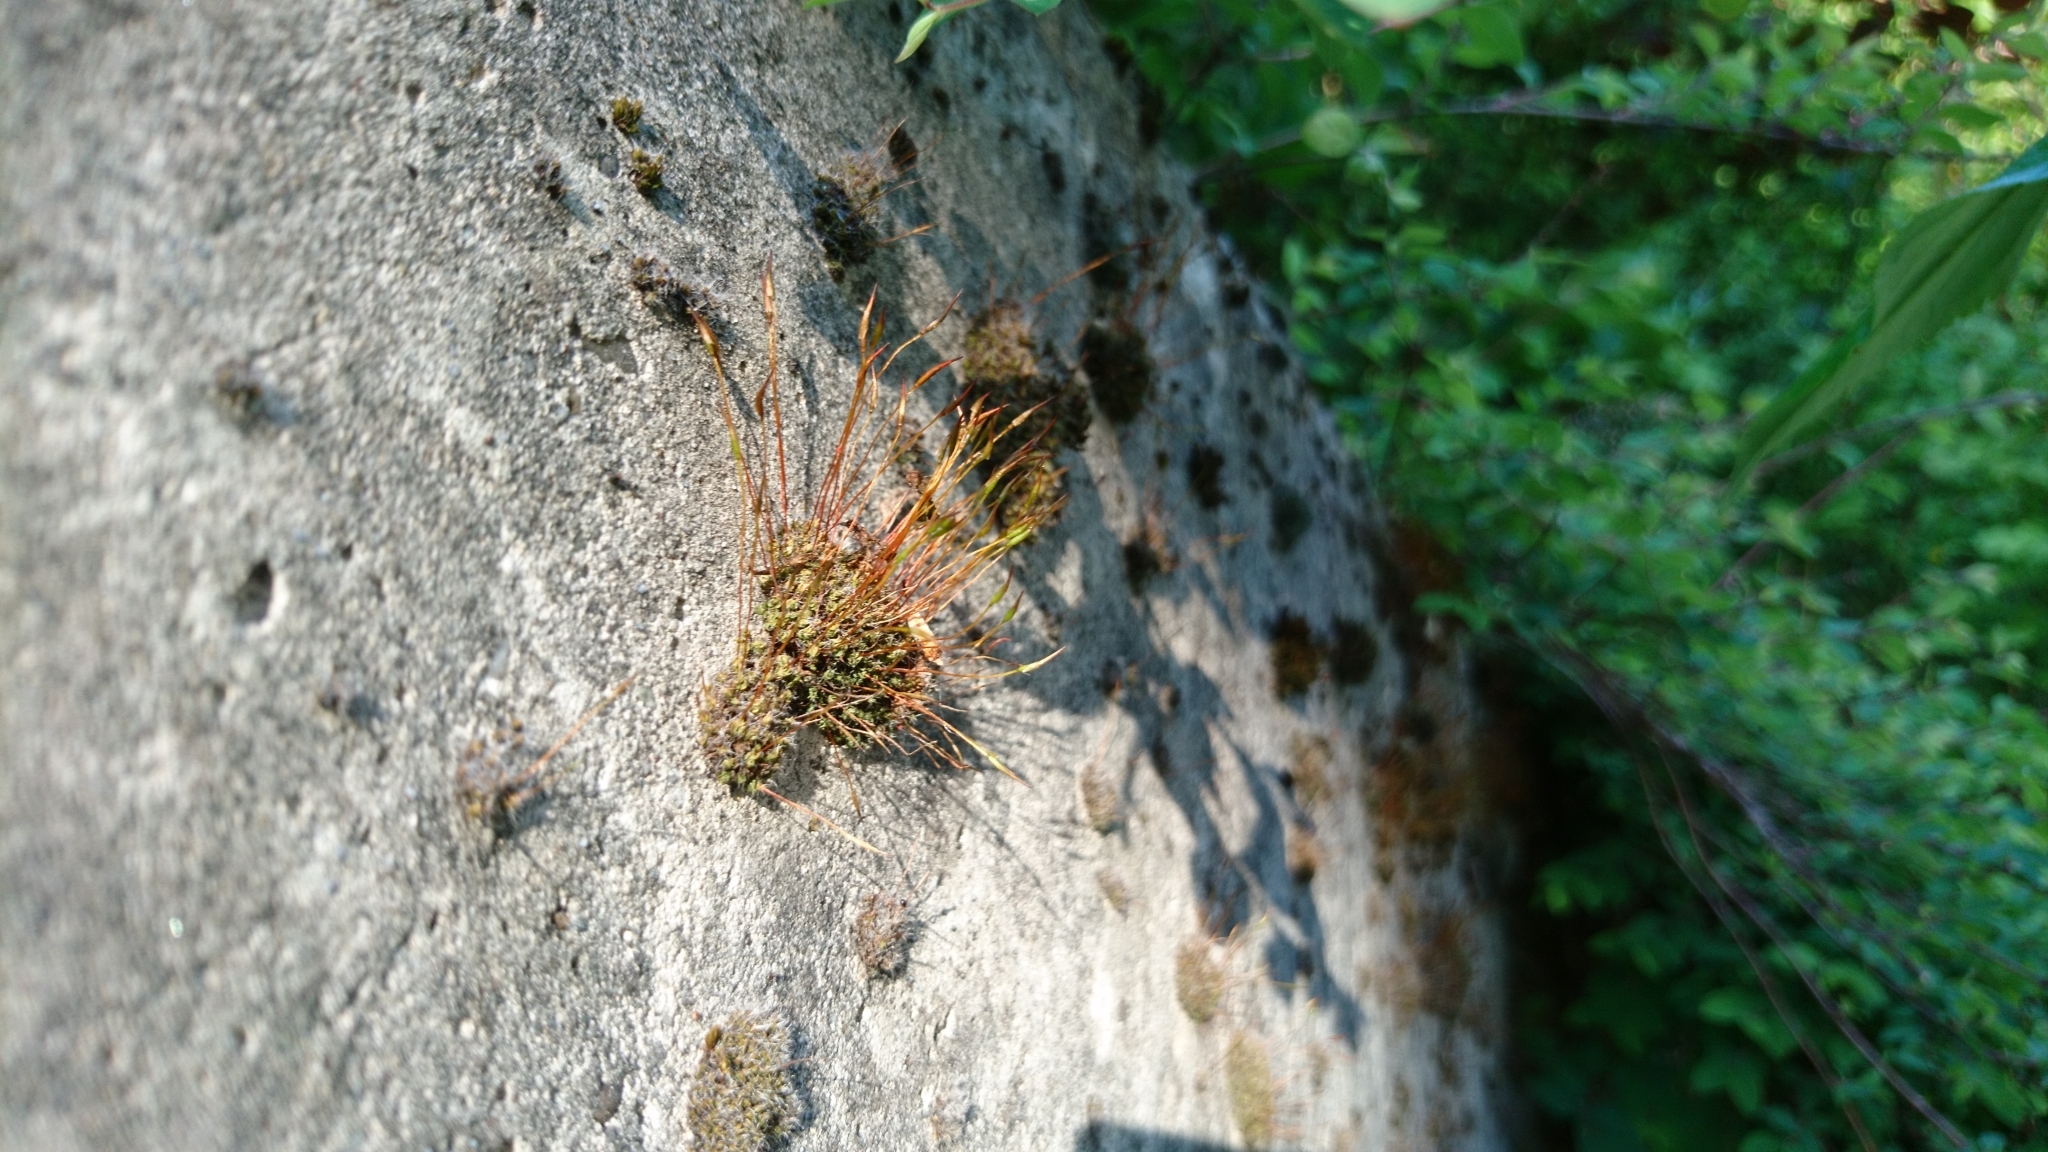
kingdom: Plantae
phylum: Bryophyta
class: Bryopsida
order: Pottiales
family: Pottiaceae
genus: Tortula
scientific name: Tortula muralis
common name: Wall screw-moss
